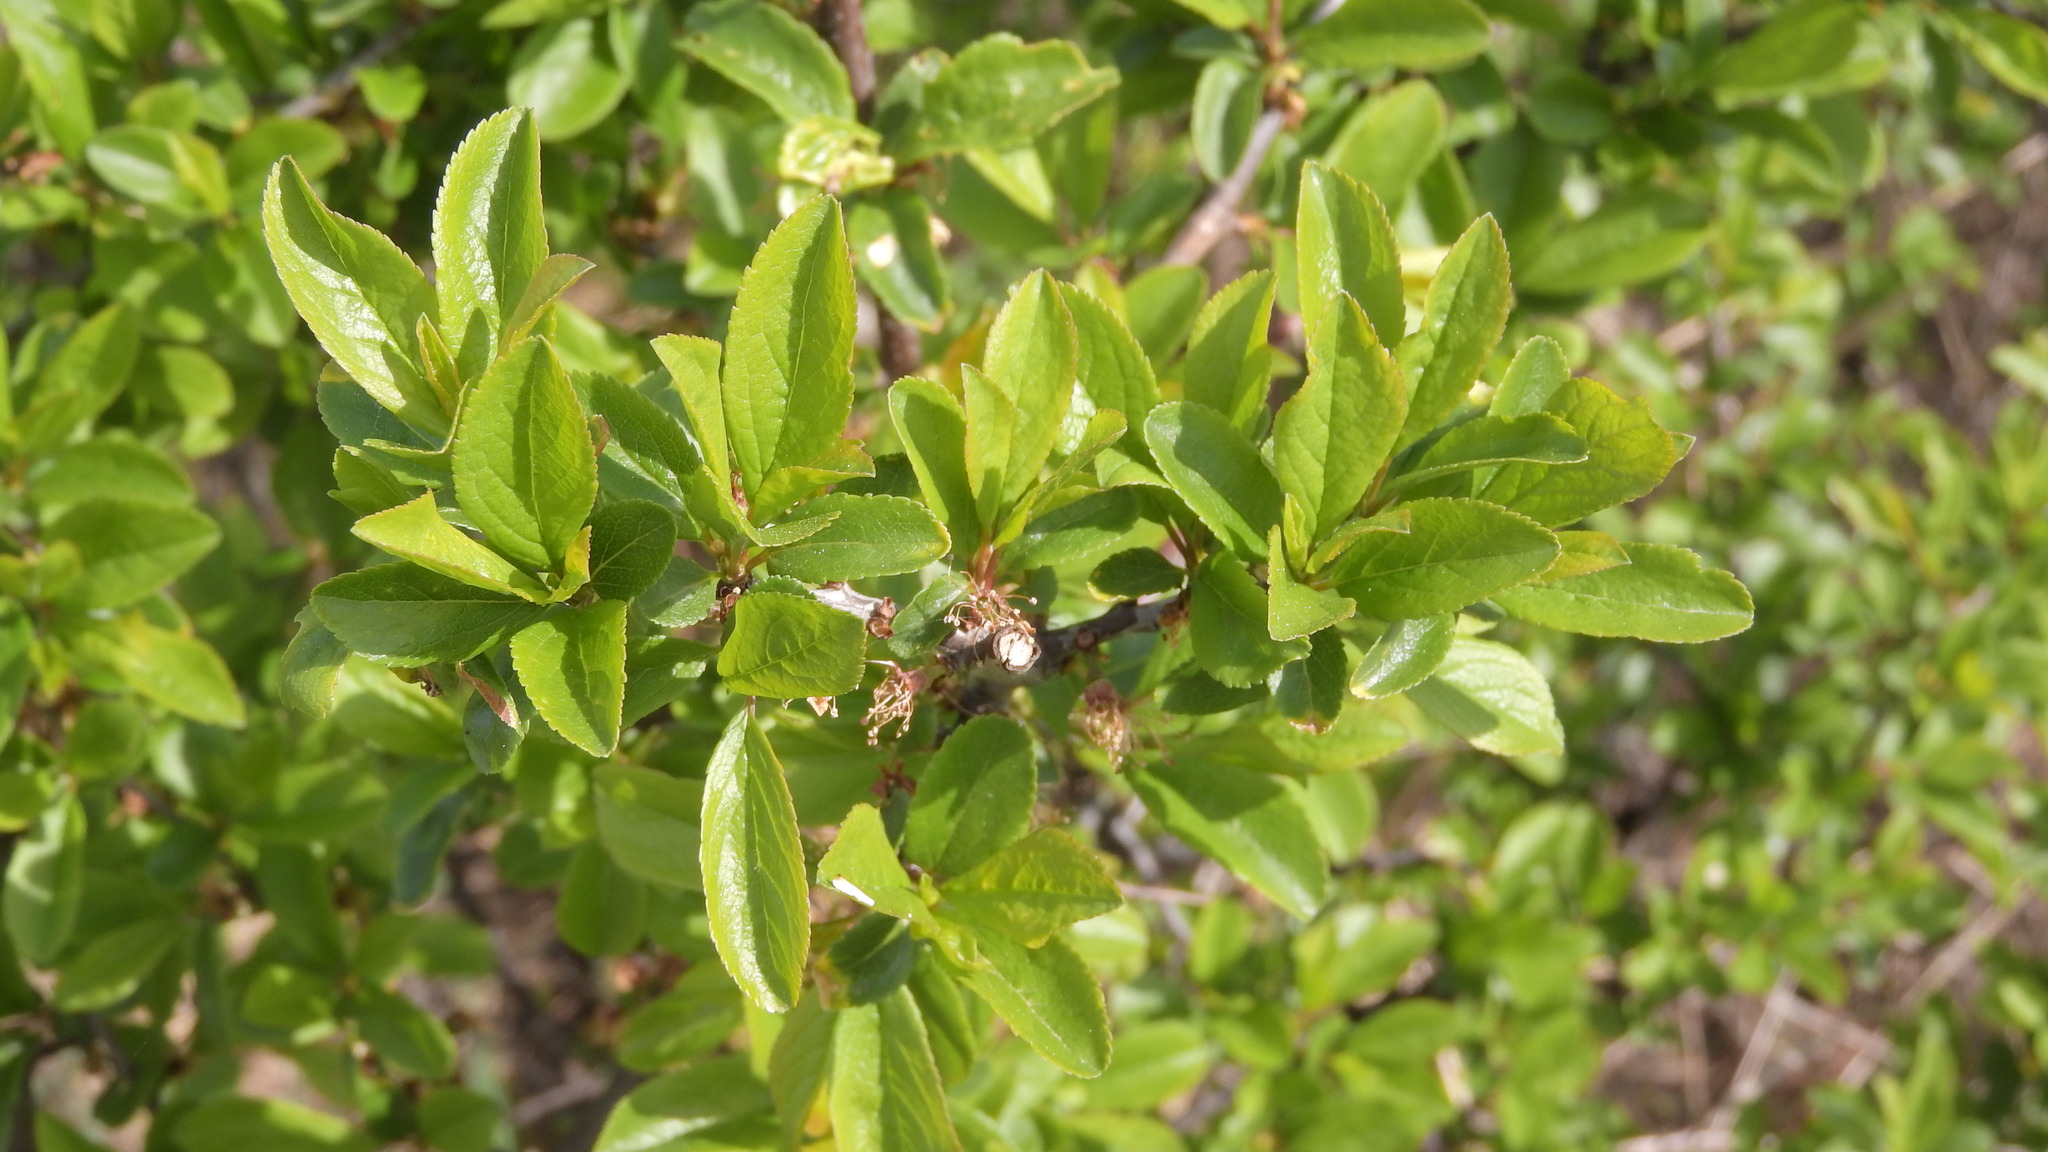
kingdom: Plantae
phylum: Tracheophyta
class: Magnoliopsida
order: Rosales
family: Rosaceae
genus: Prunus
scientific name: Prunus spinosa
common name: Blackthorn
